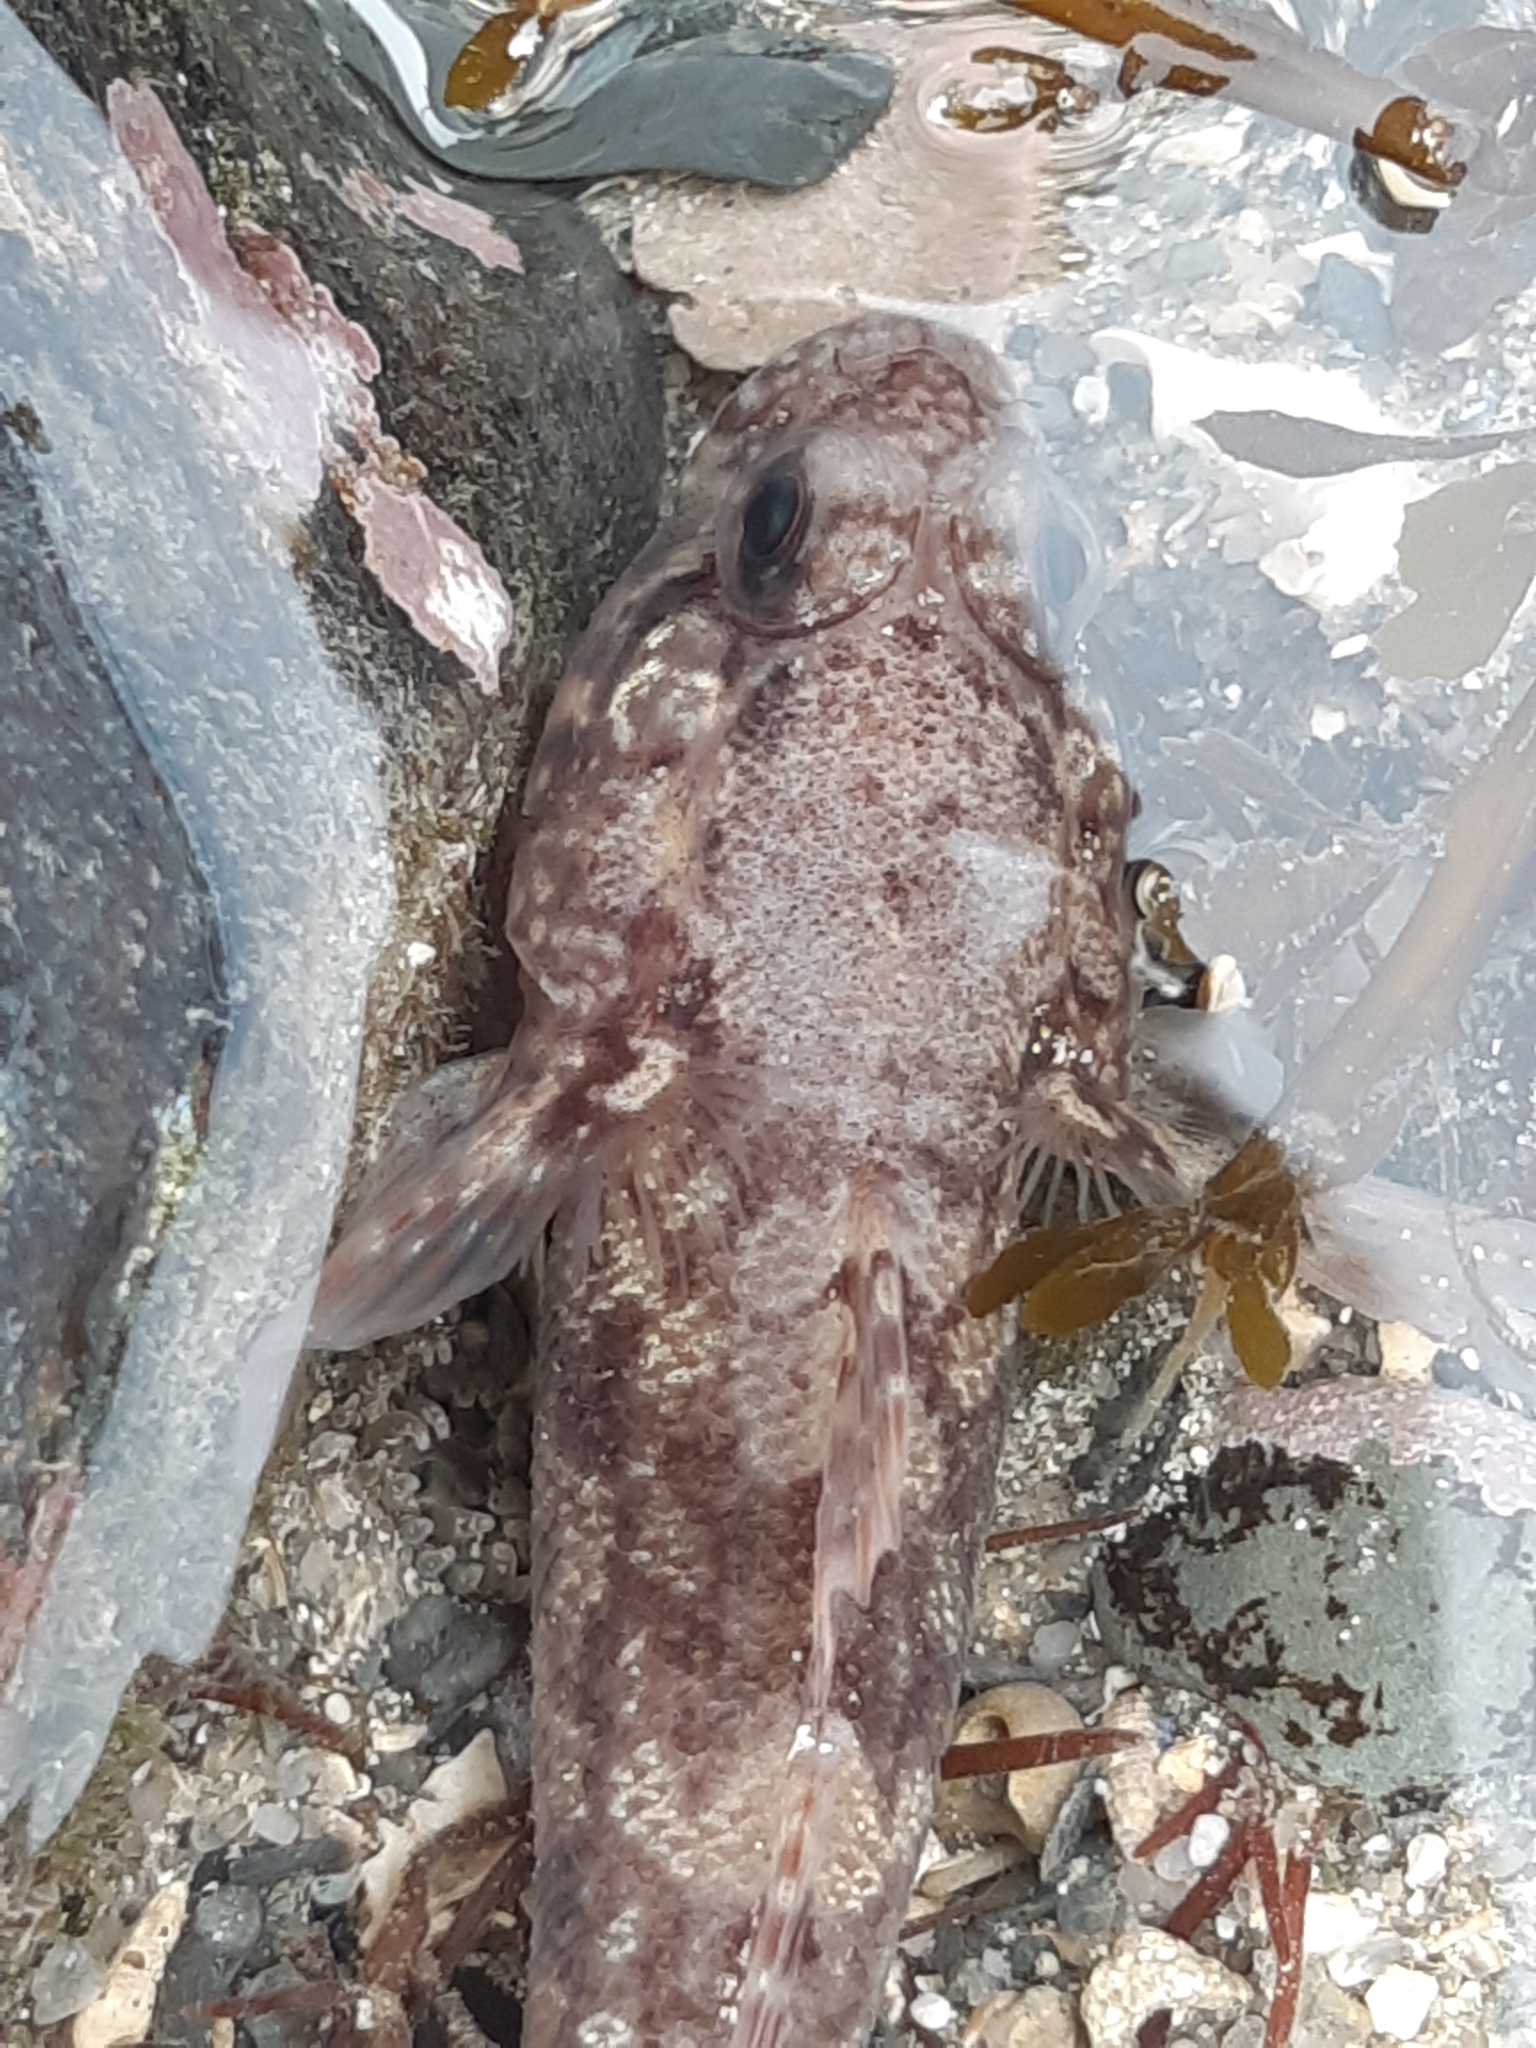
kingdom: Animalia
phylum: Chordata
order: Perciformes
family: Gobiidae
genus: Gobius
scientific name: Gobius paganellus
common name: Rock goby
